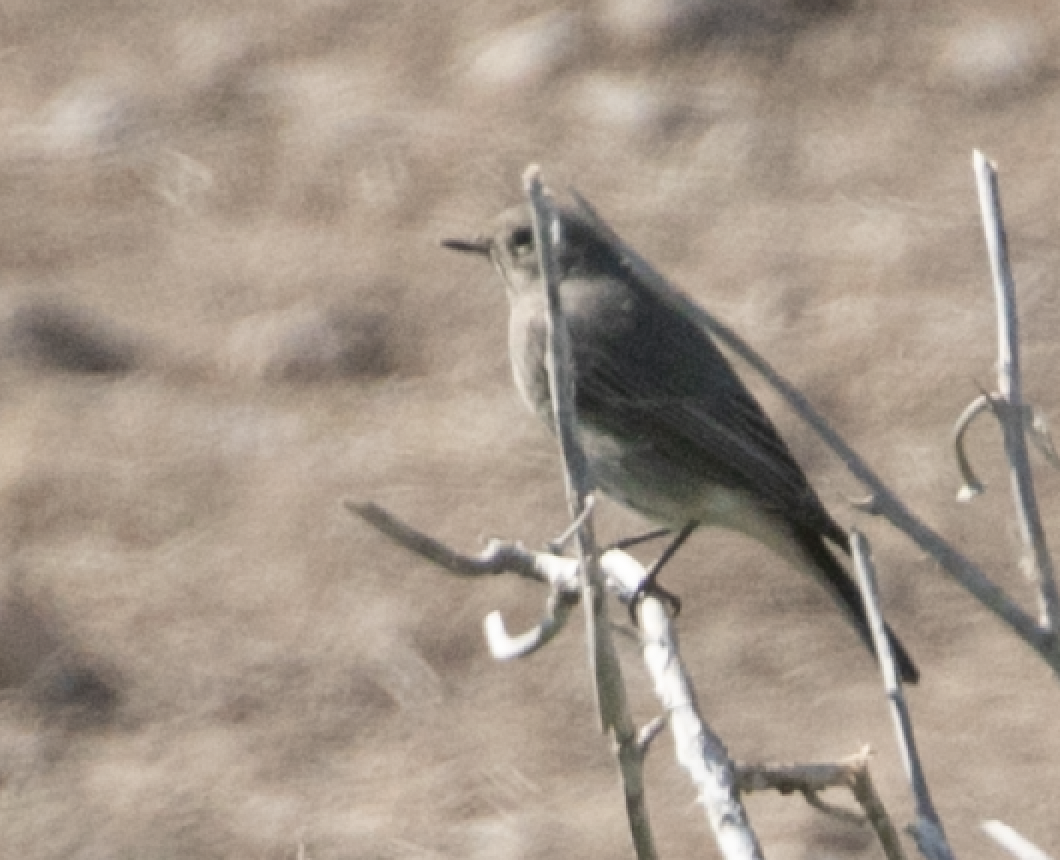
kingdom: Animalia
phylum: Chordata
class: Aves
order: Passeriformes
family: Muscicapidae
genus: Phoenicurus
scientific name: Phoenicurus ochruros
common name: Black redstart
